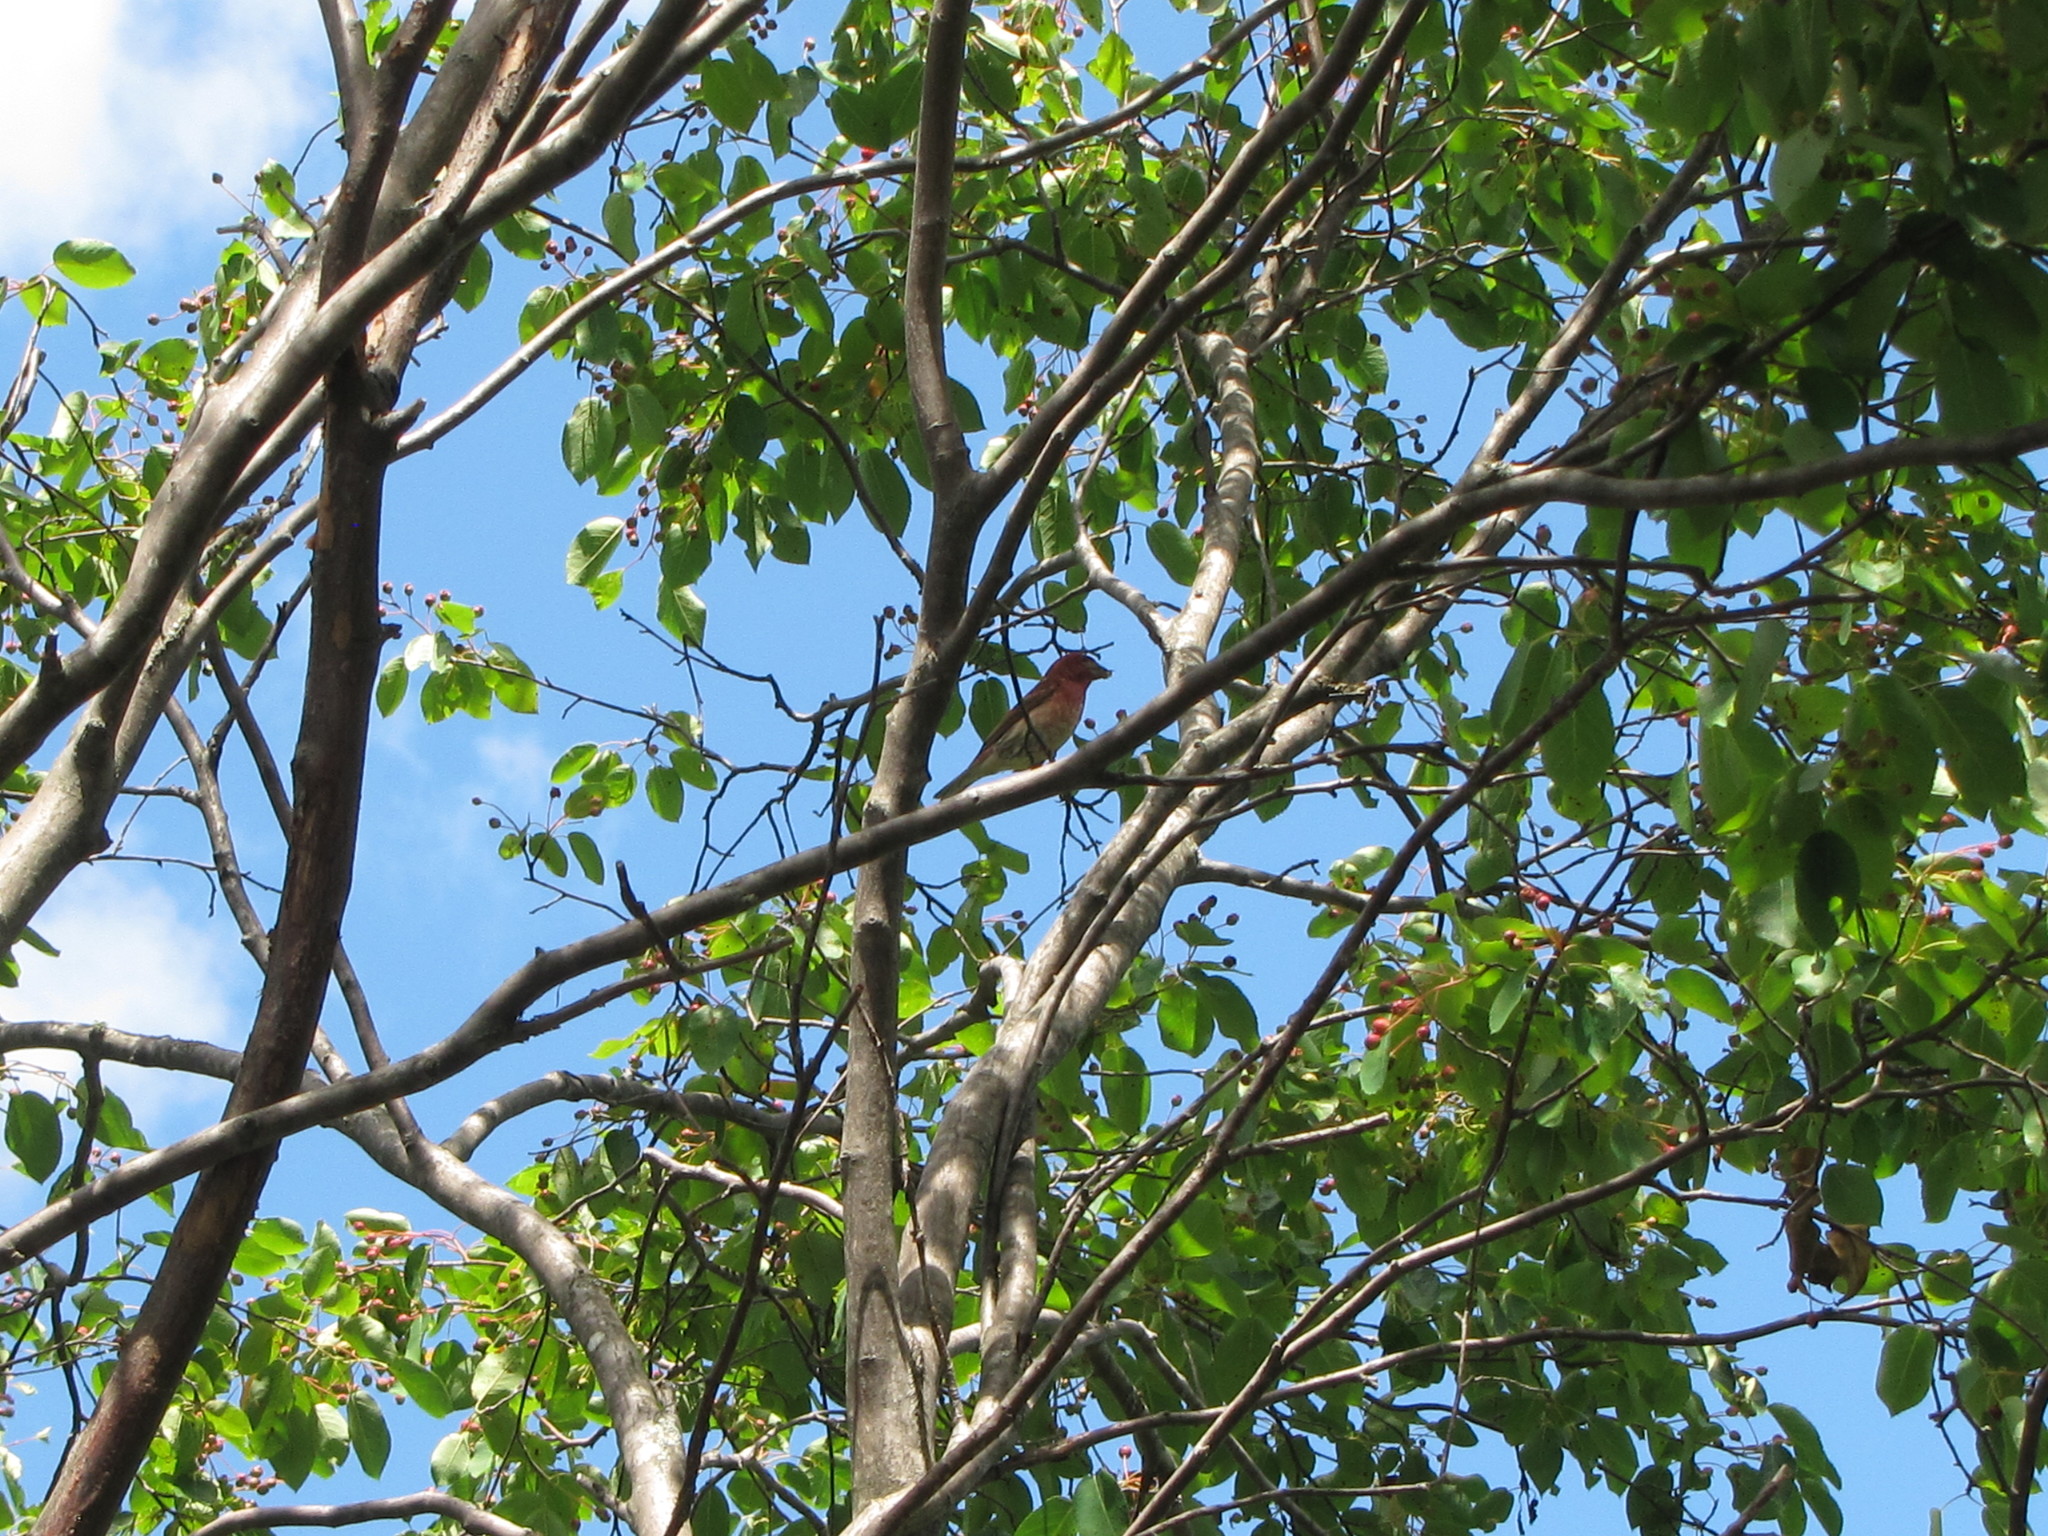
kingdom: Animalia
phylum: Chordata
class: Aves
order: Passeriformes
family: Fringillidae
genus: Haemorhous
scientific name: Haemorhous purpureus
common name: Purple finch
